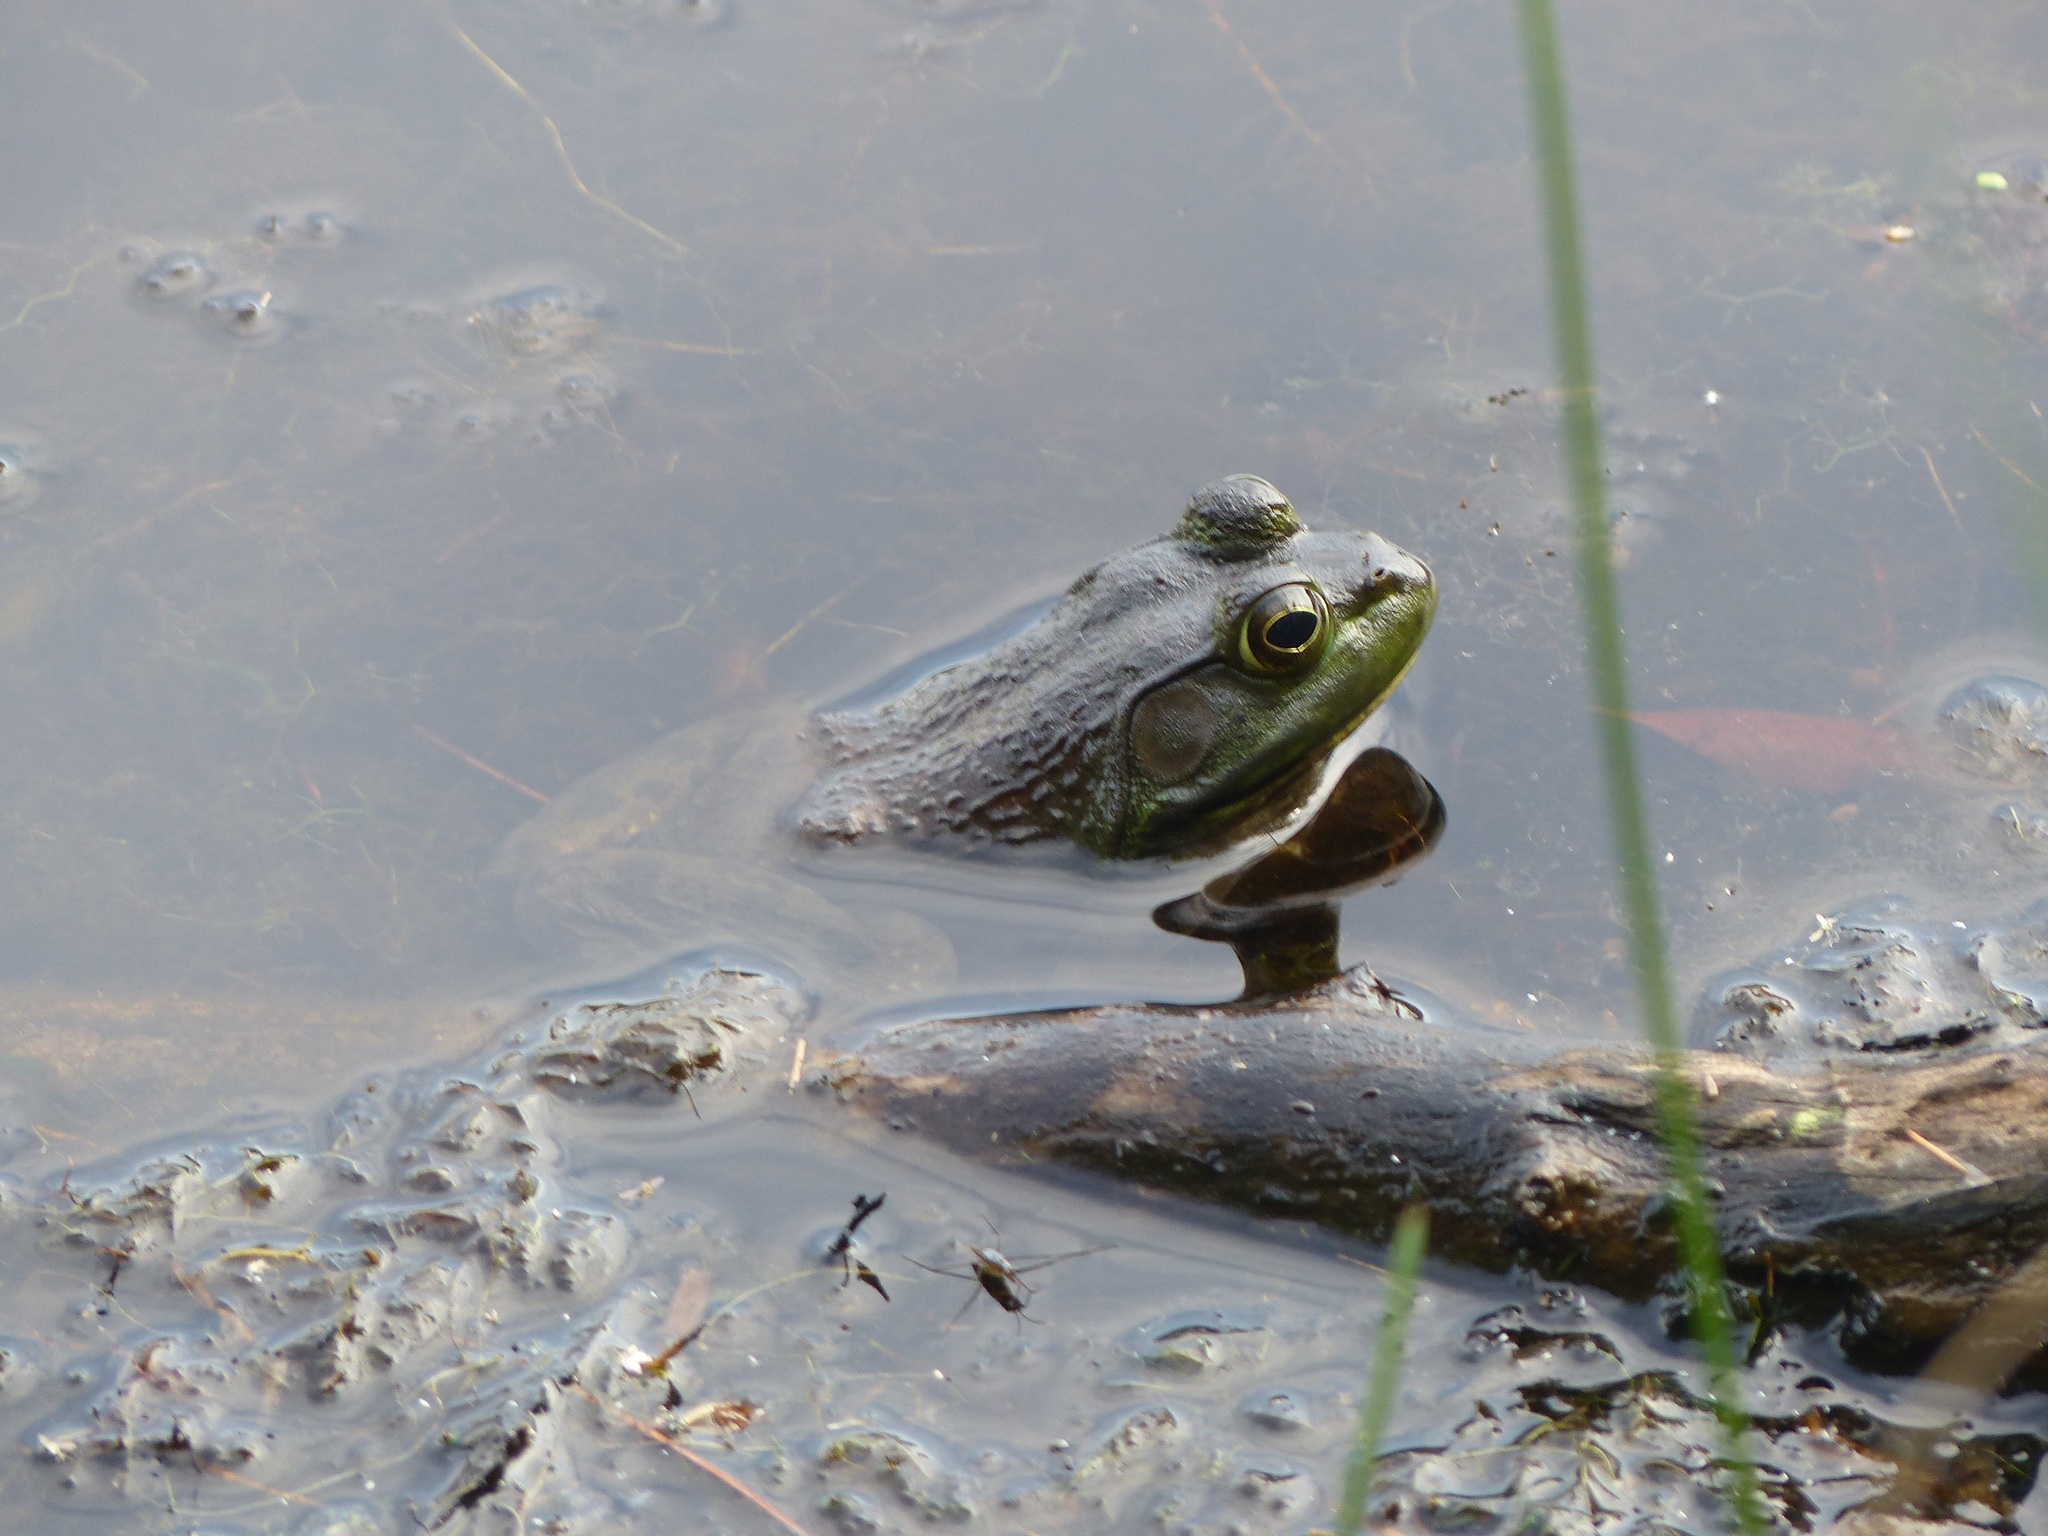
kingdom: Animalia
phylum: Chordata
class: Amphibia
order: Anura
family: Ranidae
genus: Lithobates
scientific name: Lithobates catesbeianus
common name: American bullfrog
